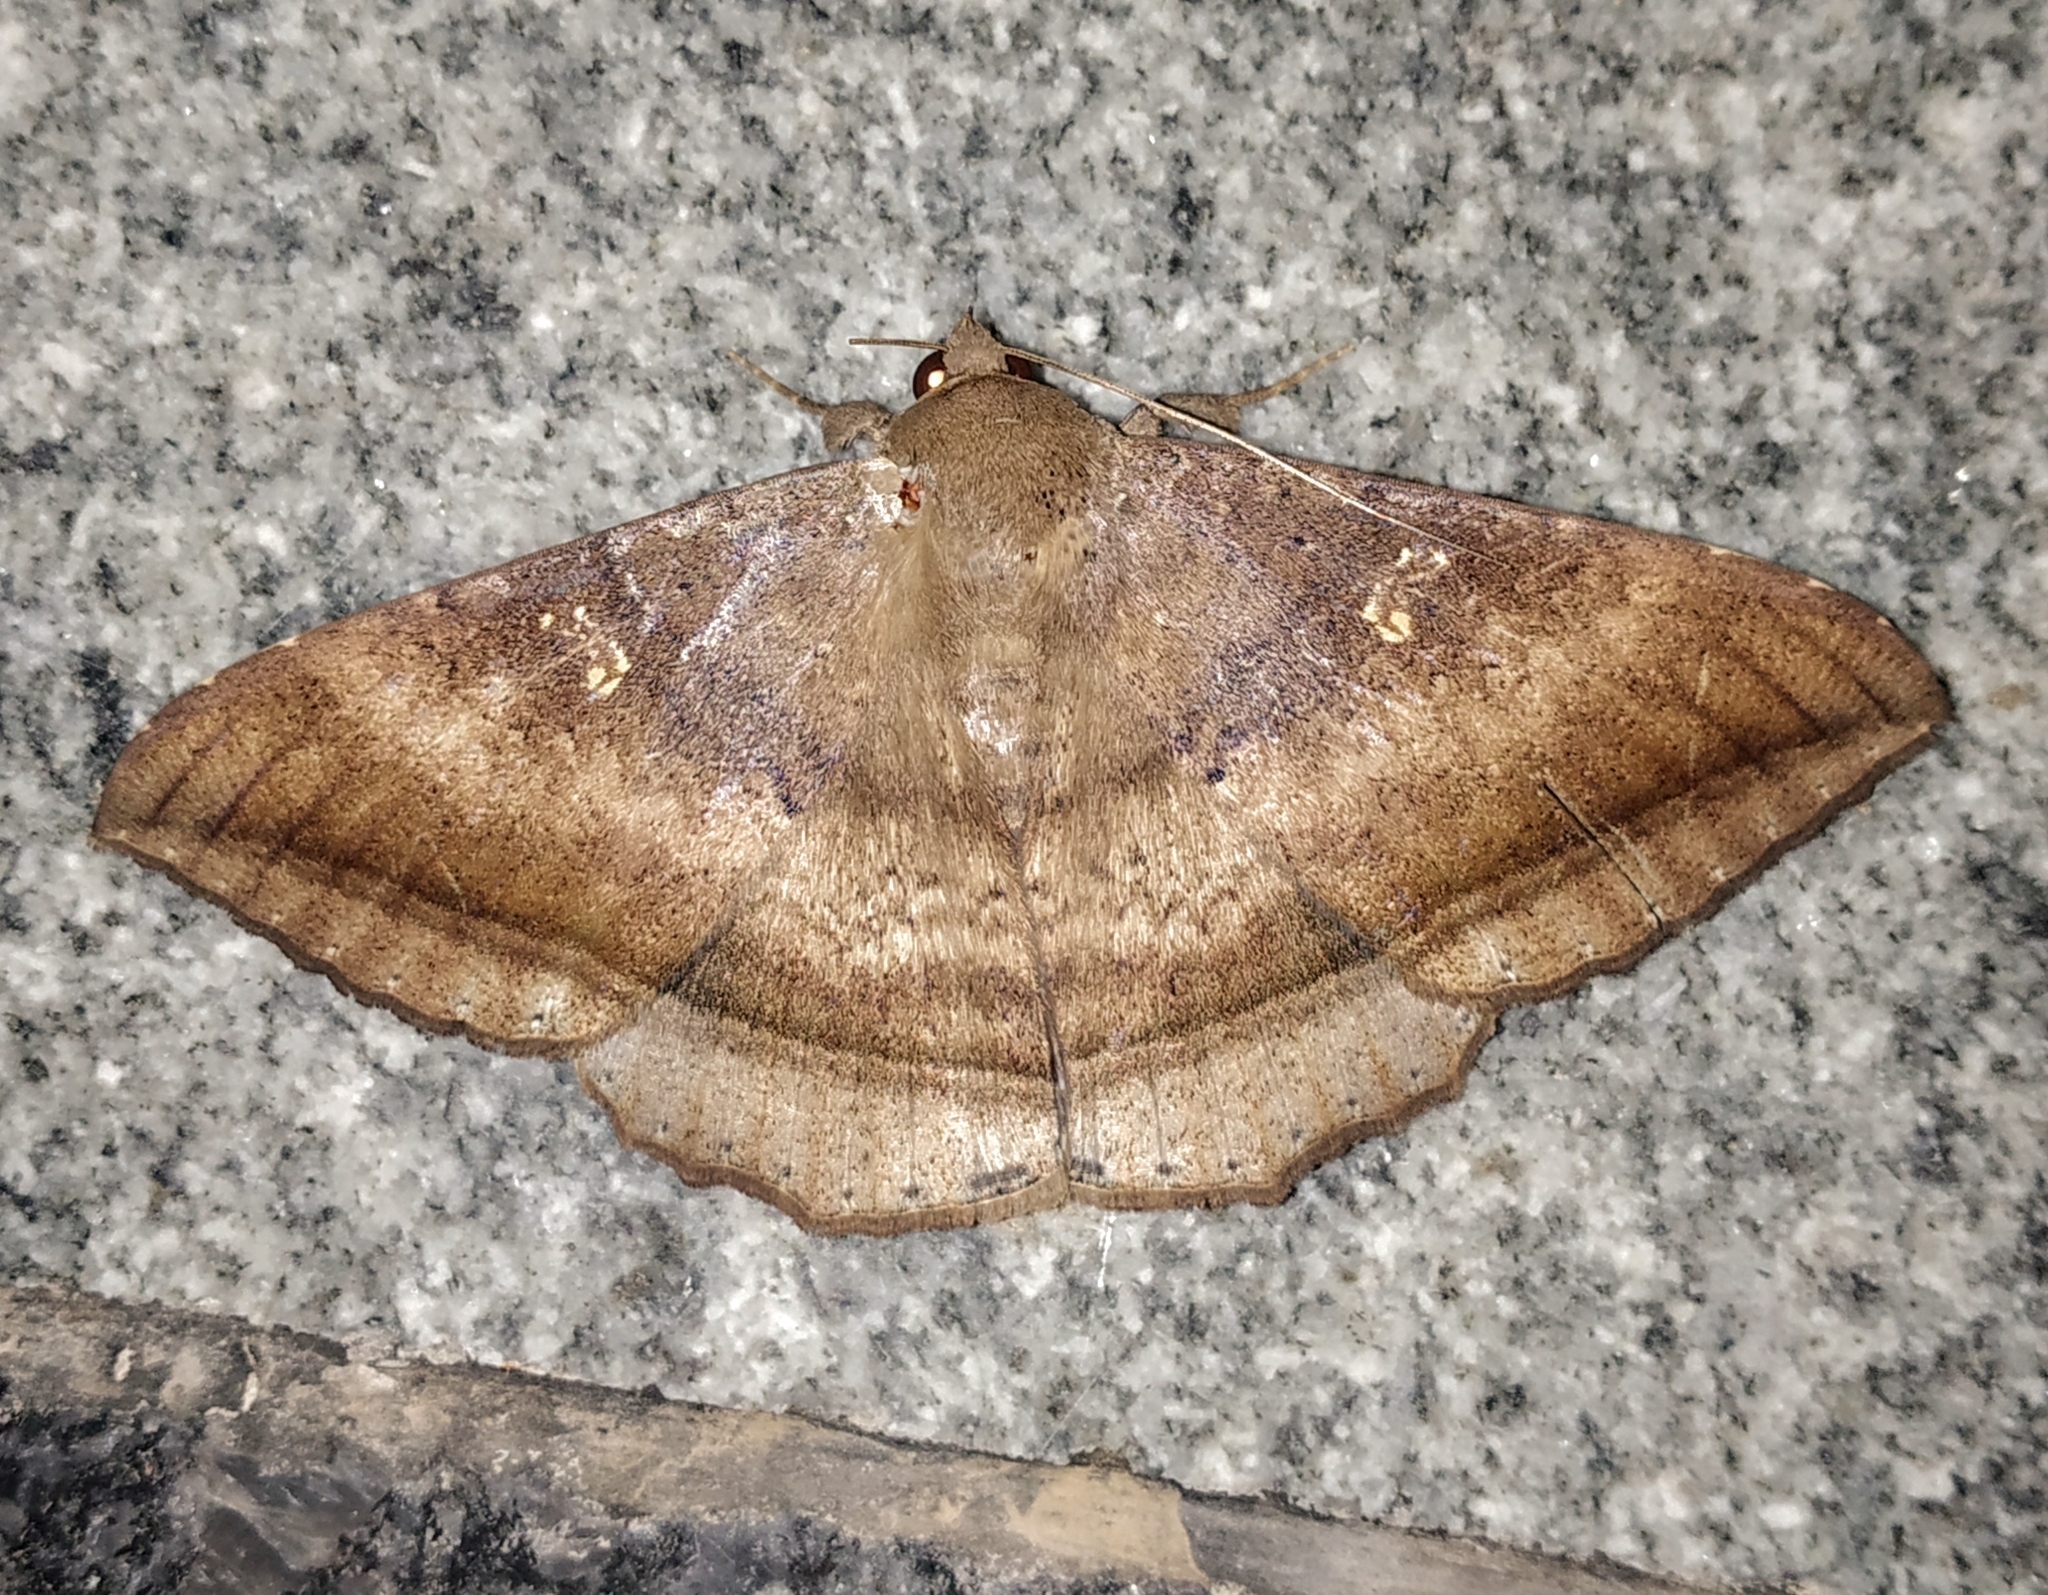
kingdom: Animalia
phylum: Arthropoda
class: Insecta
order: Lepidoptera
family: Erebidae
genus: Hulodes
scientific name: Hulodes caranea
